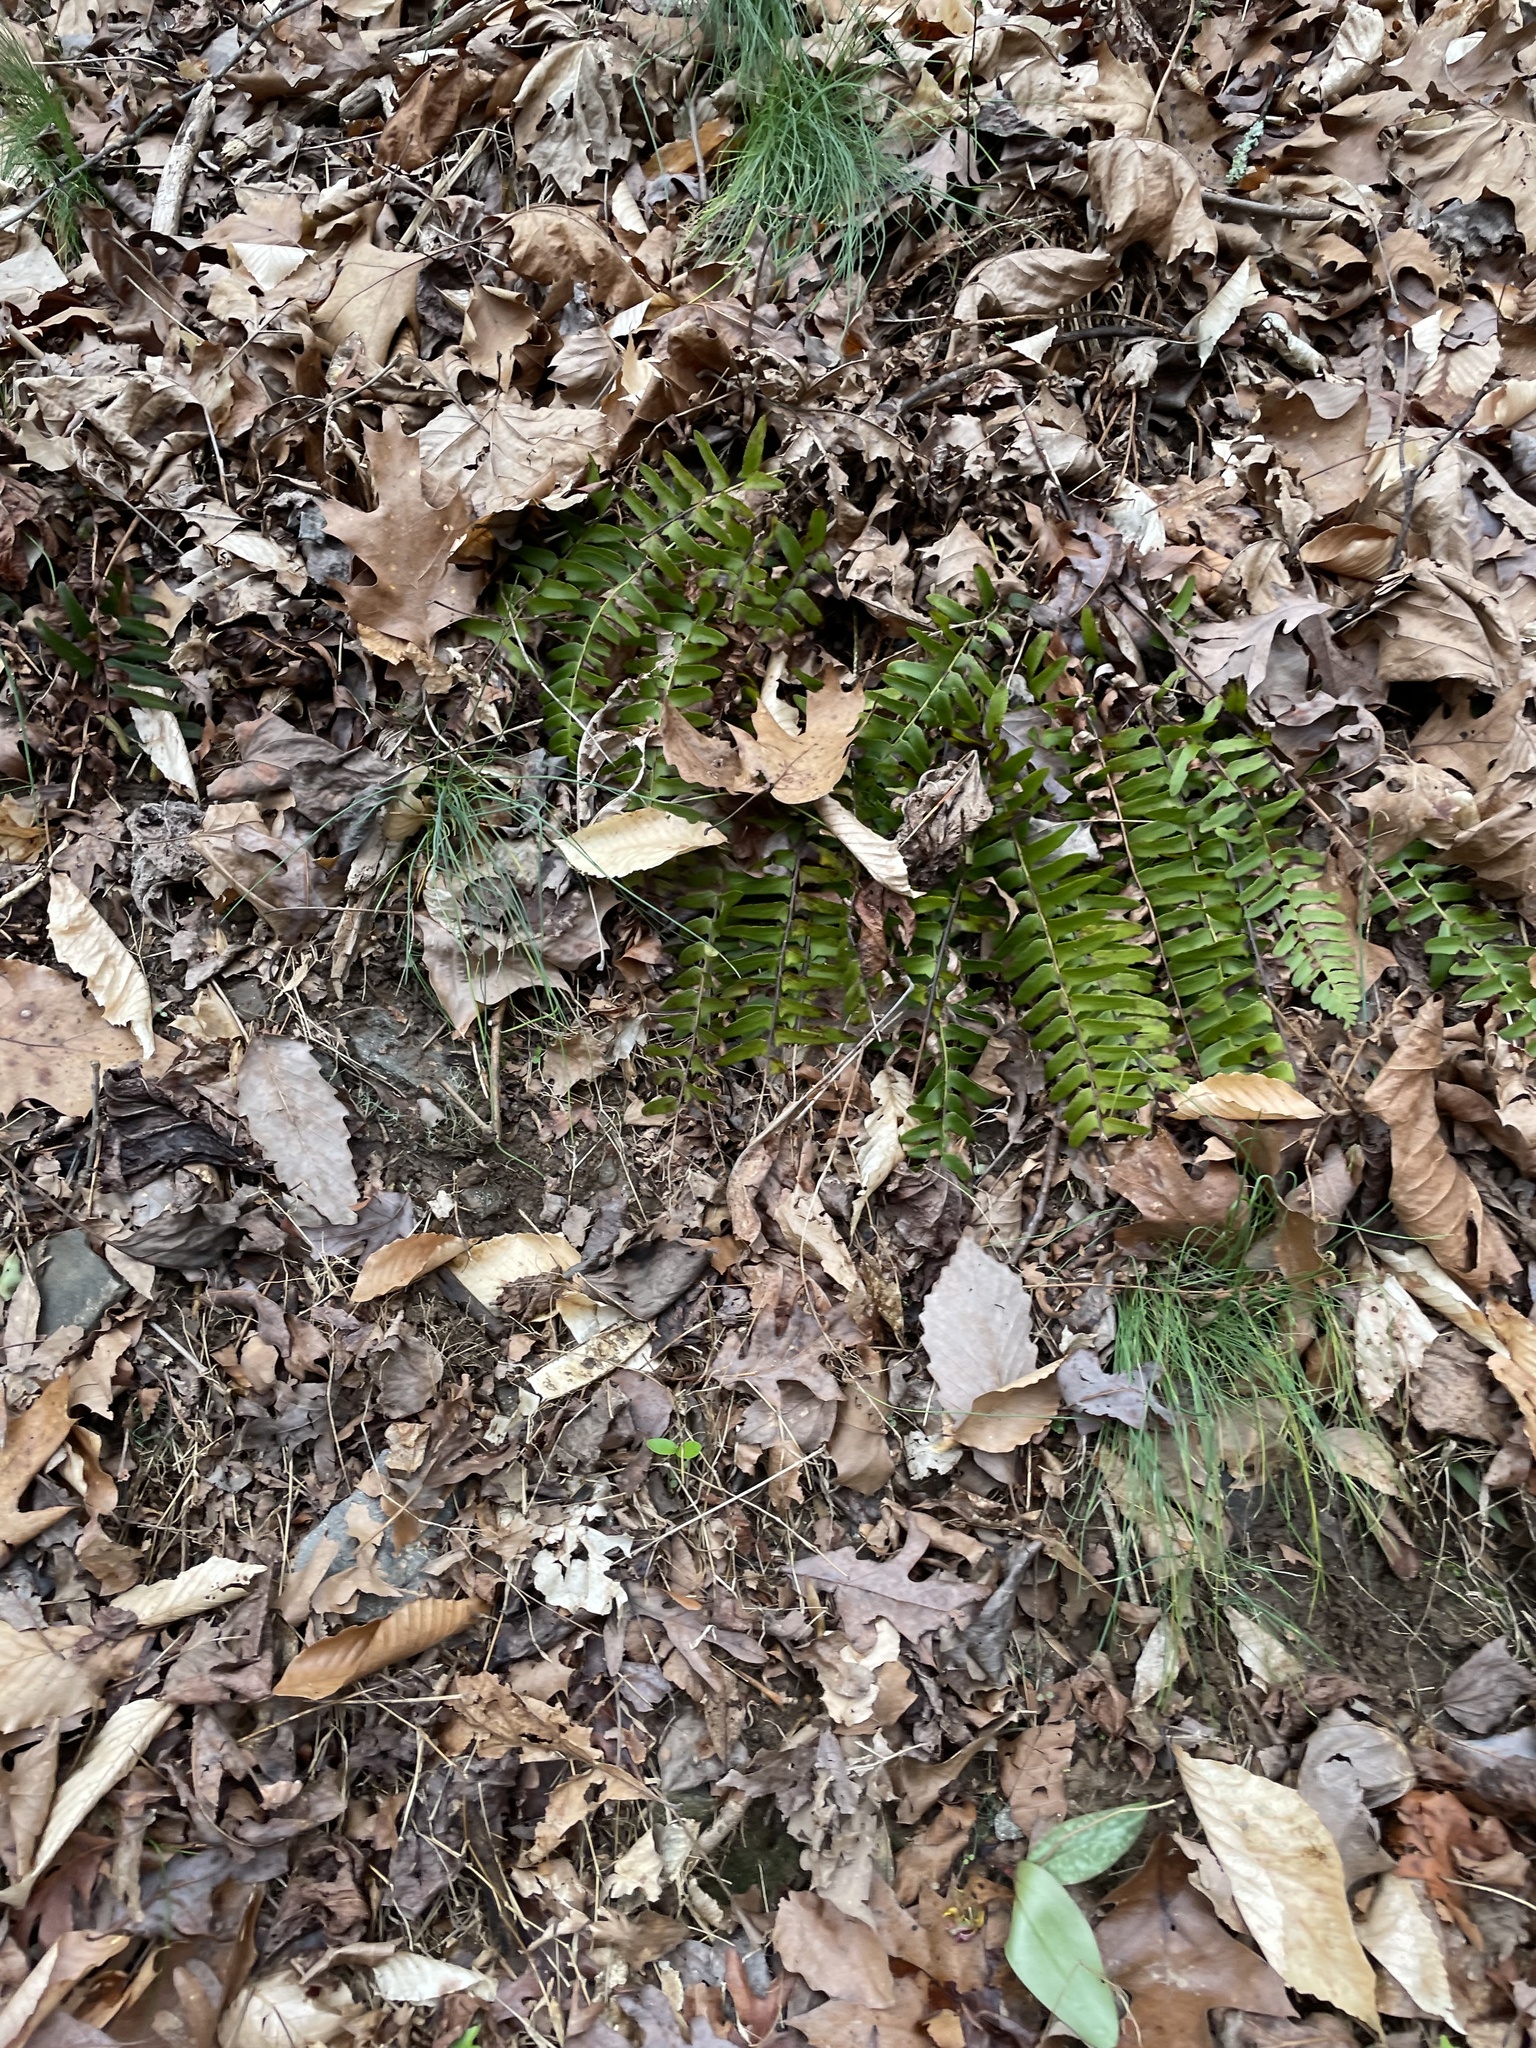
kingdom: Plantae
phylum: Tracheophyta
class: Polypodiopsida
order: Polypodiales
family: Dryopteridaceae
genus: Polystichum
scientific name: Polystichum acrostichoides
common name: Christmas fern
